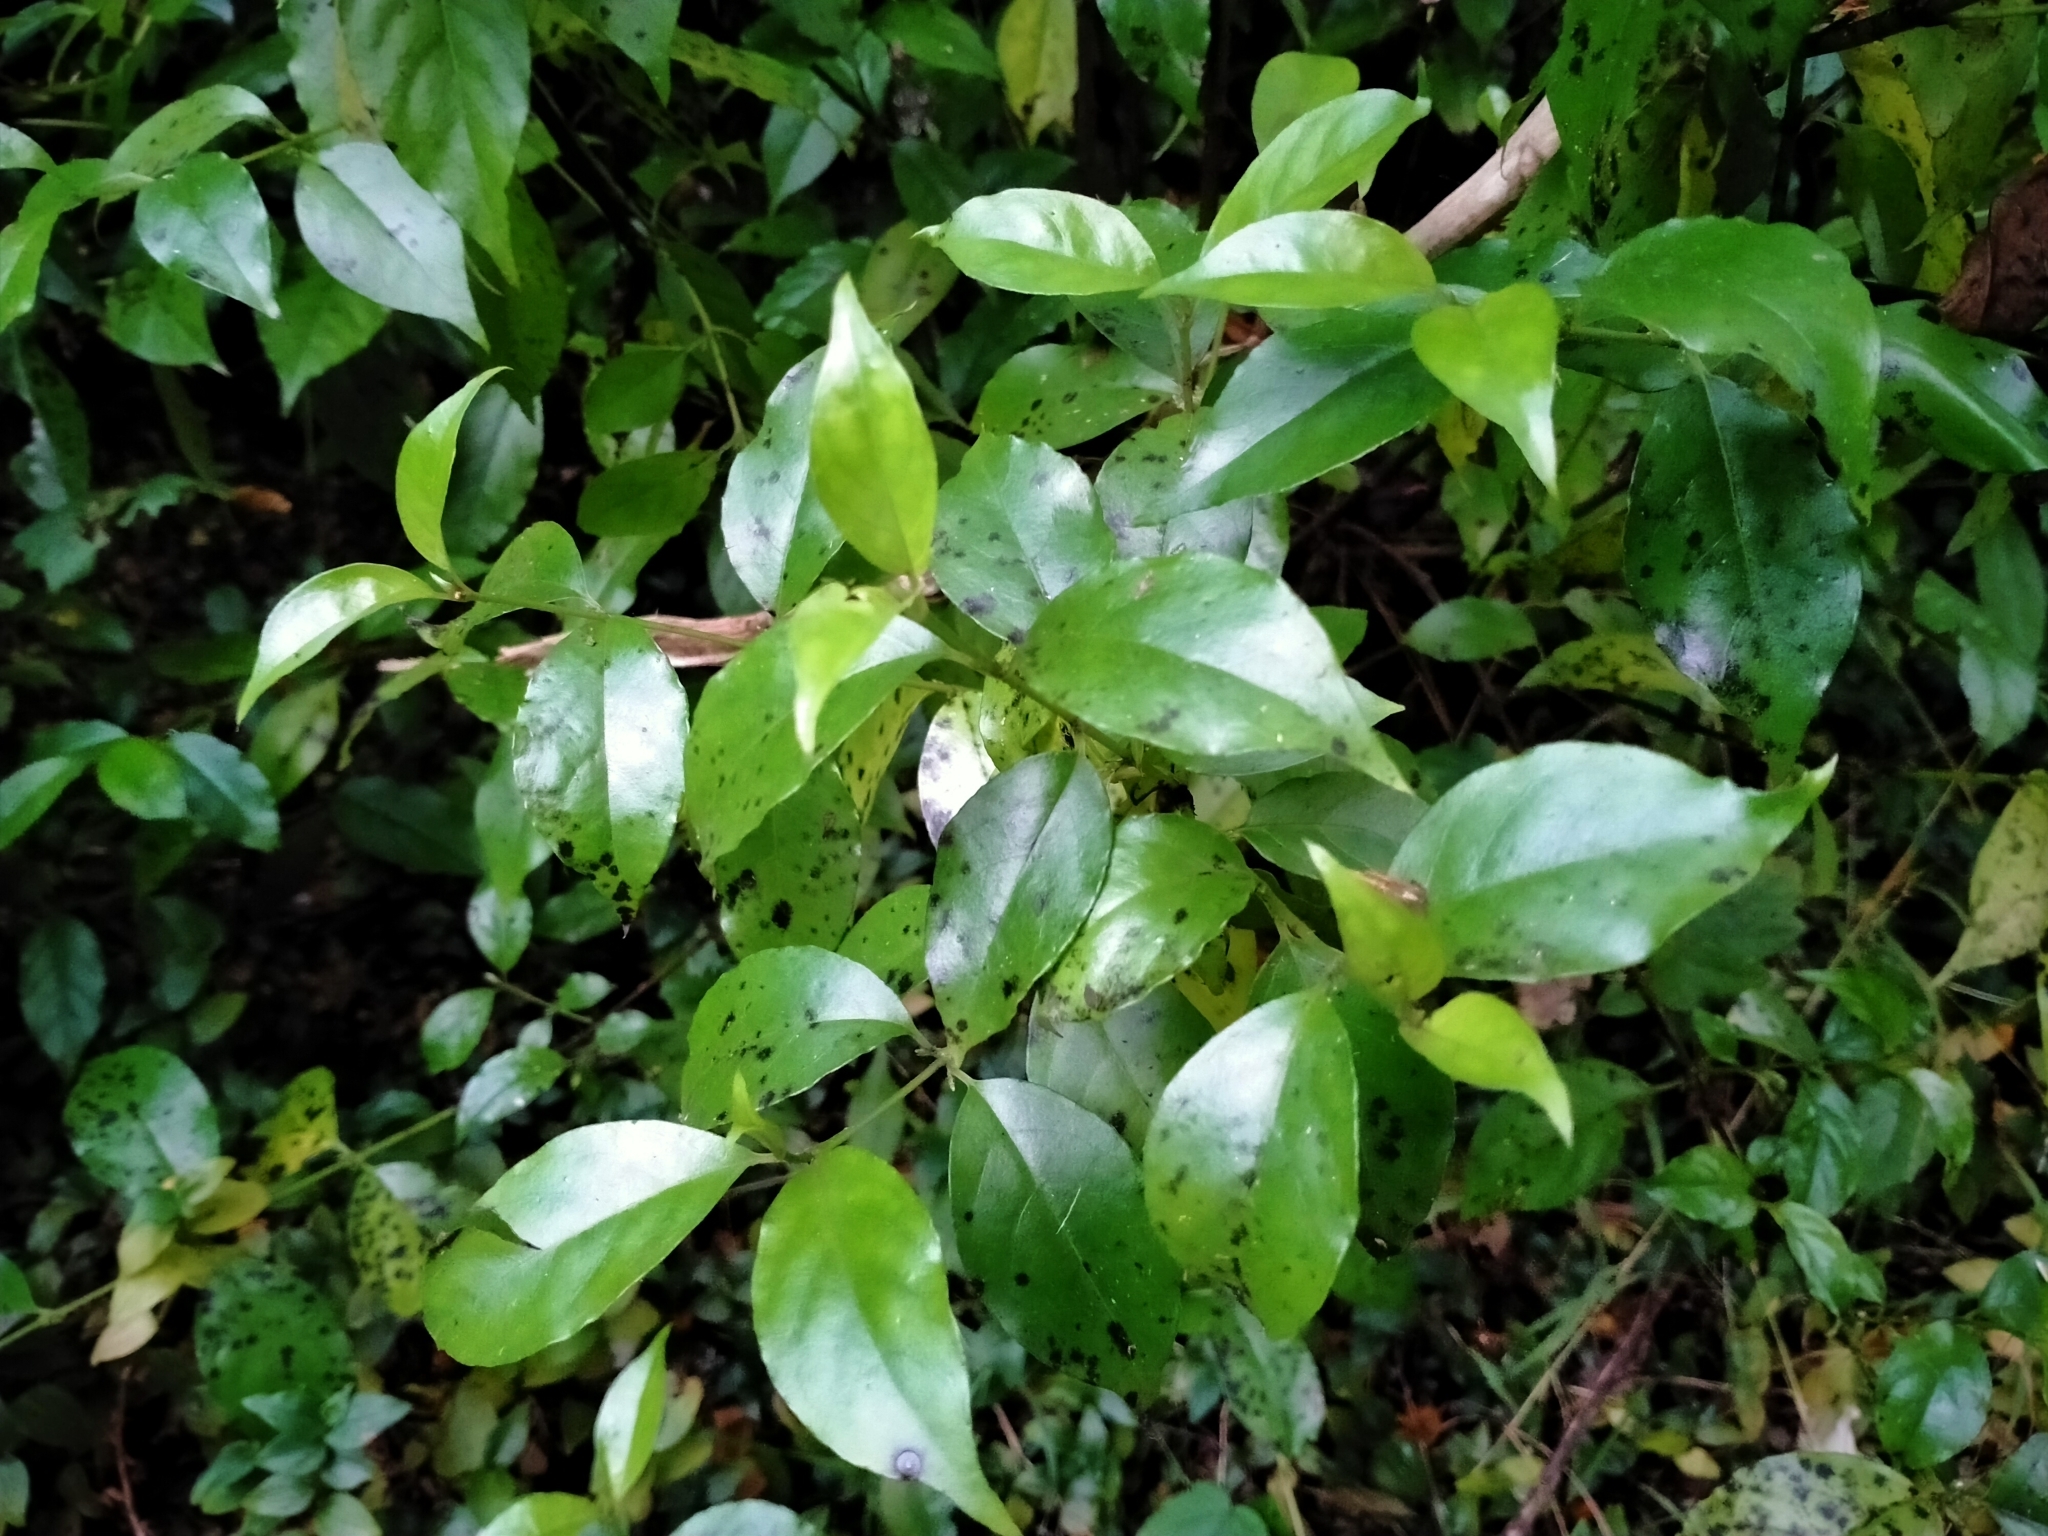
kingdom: Plantae
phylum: Tracheophyta
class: Magnoliopsida
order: Gentianales
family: Loganiaceae
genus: Geniostoma
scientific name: Geniostoma ligustrifolium
